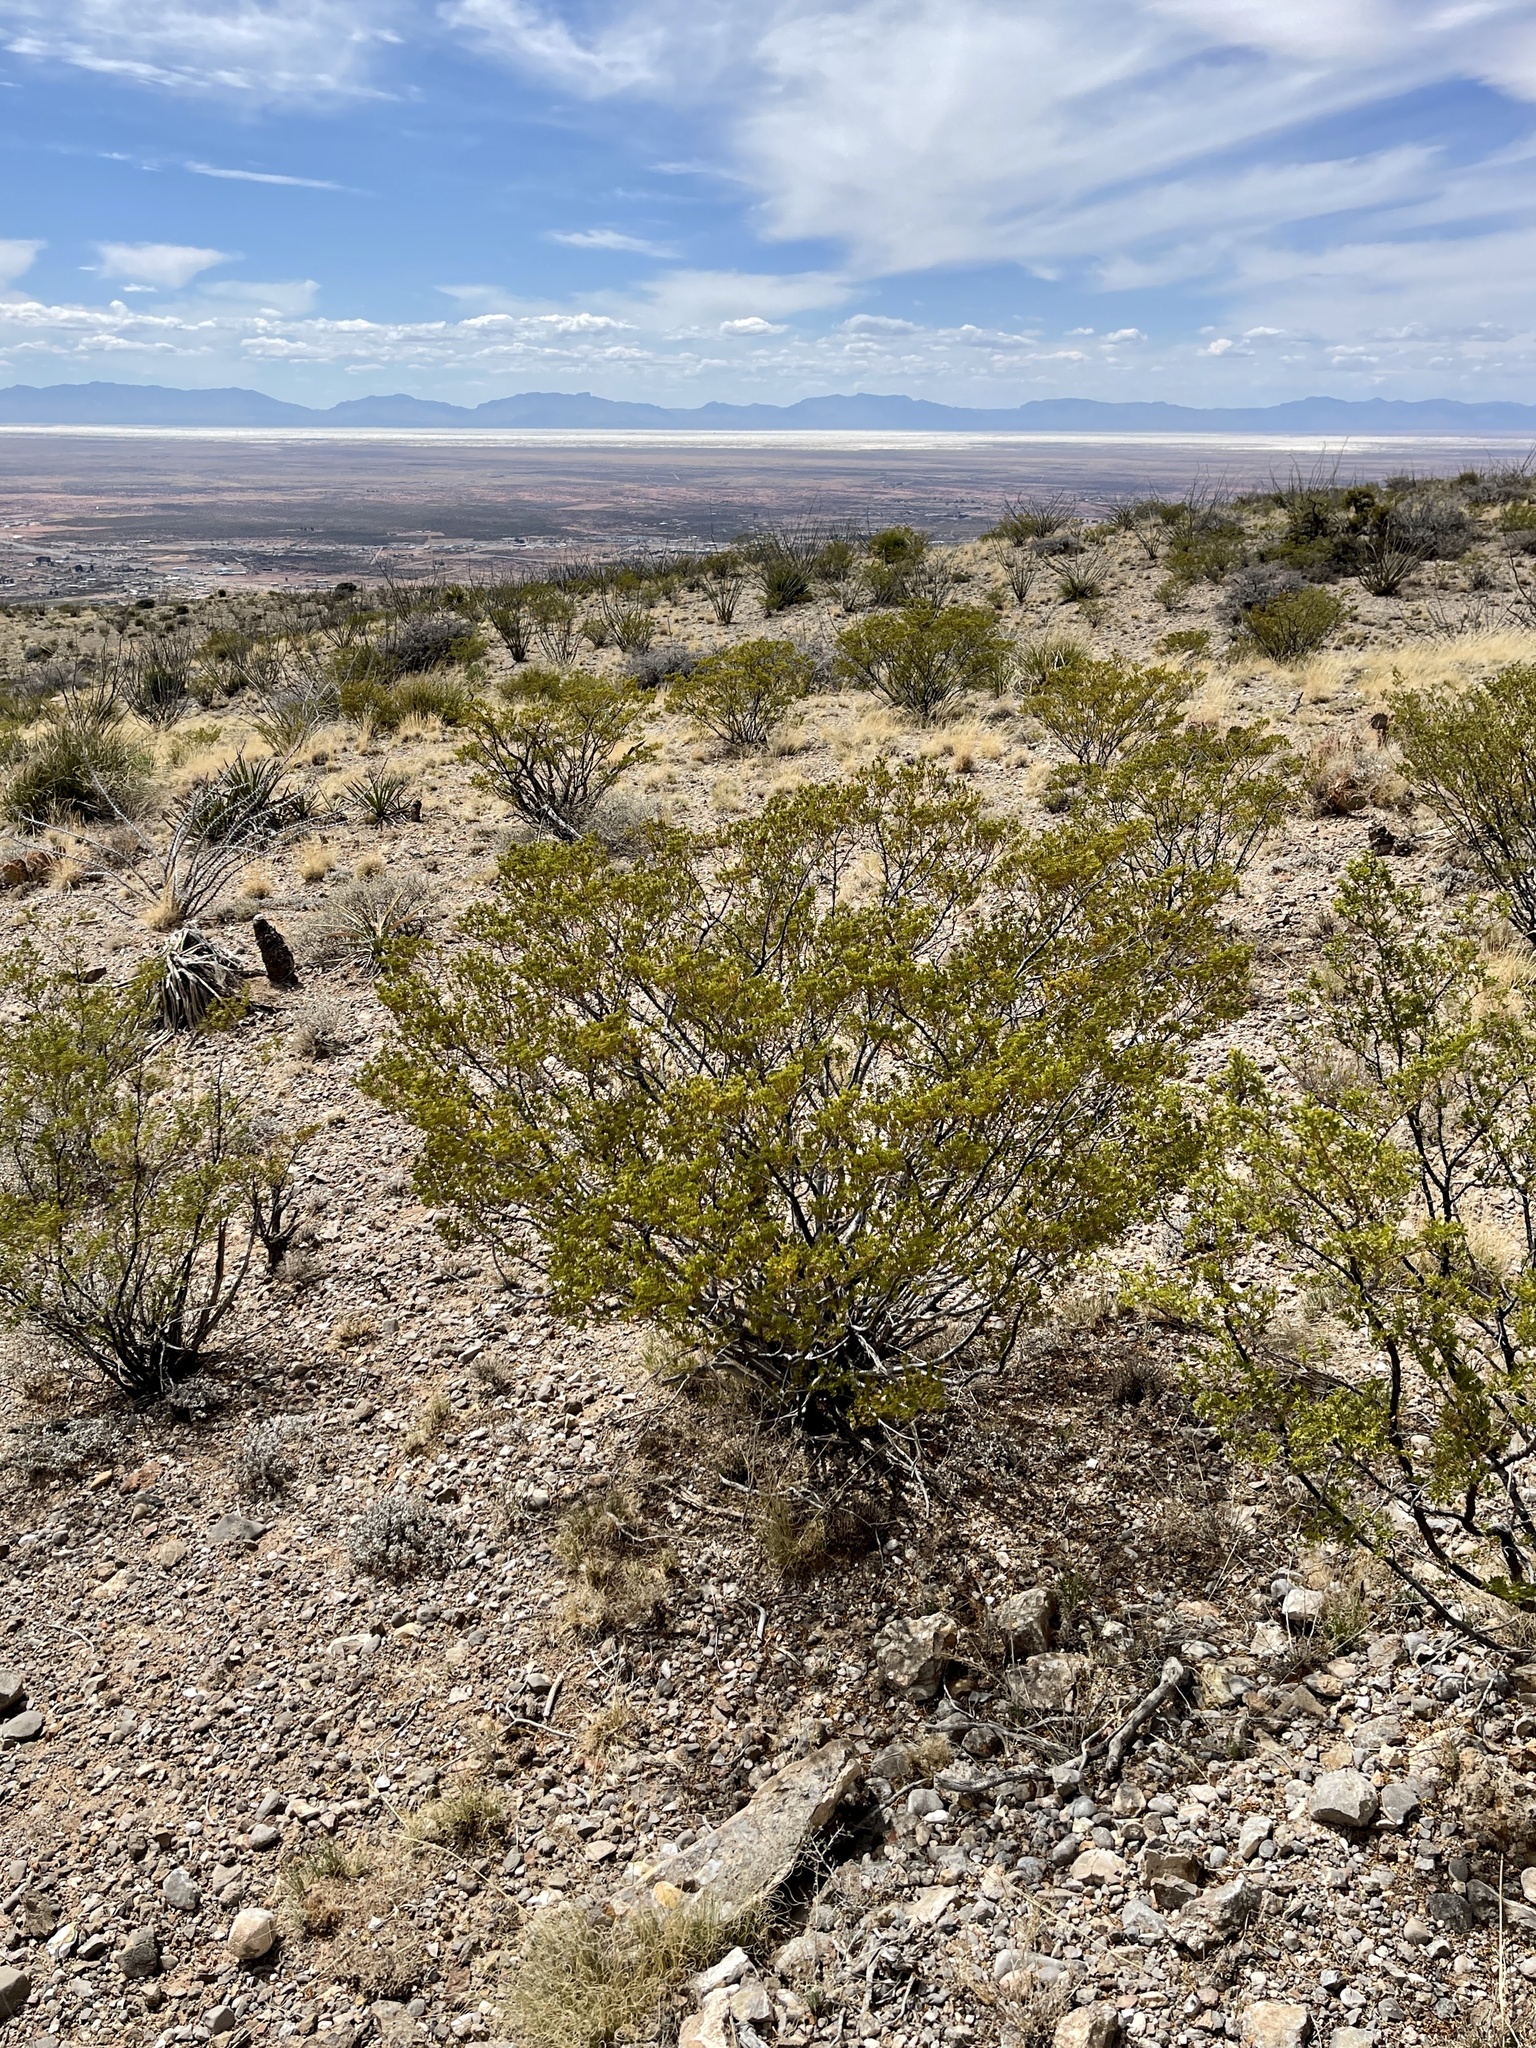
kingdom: Plantae
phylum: Tracheophyta
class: Magnoliopsida
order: Zygophyllales
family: Zygophyllaceae
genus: Larrea
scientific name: Larrea tridentata
